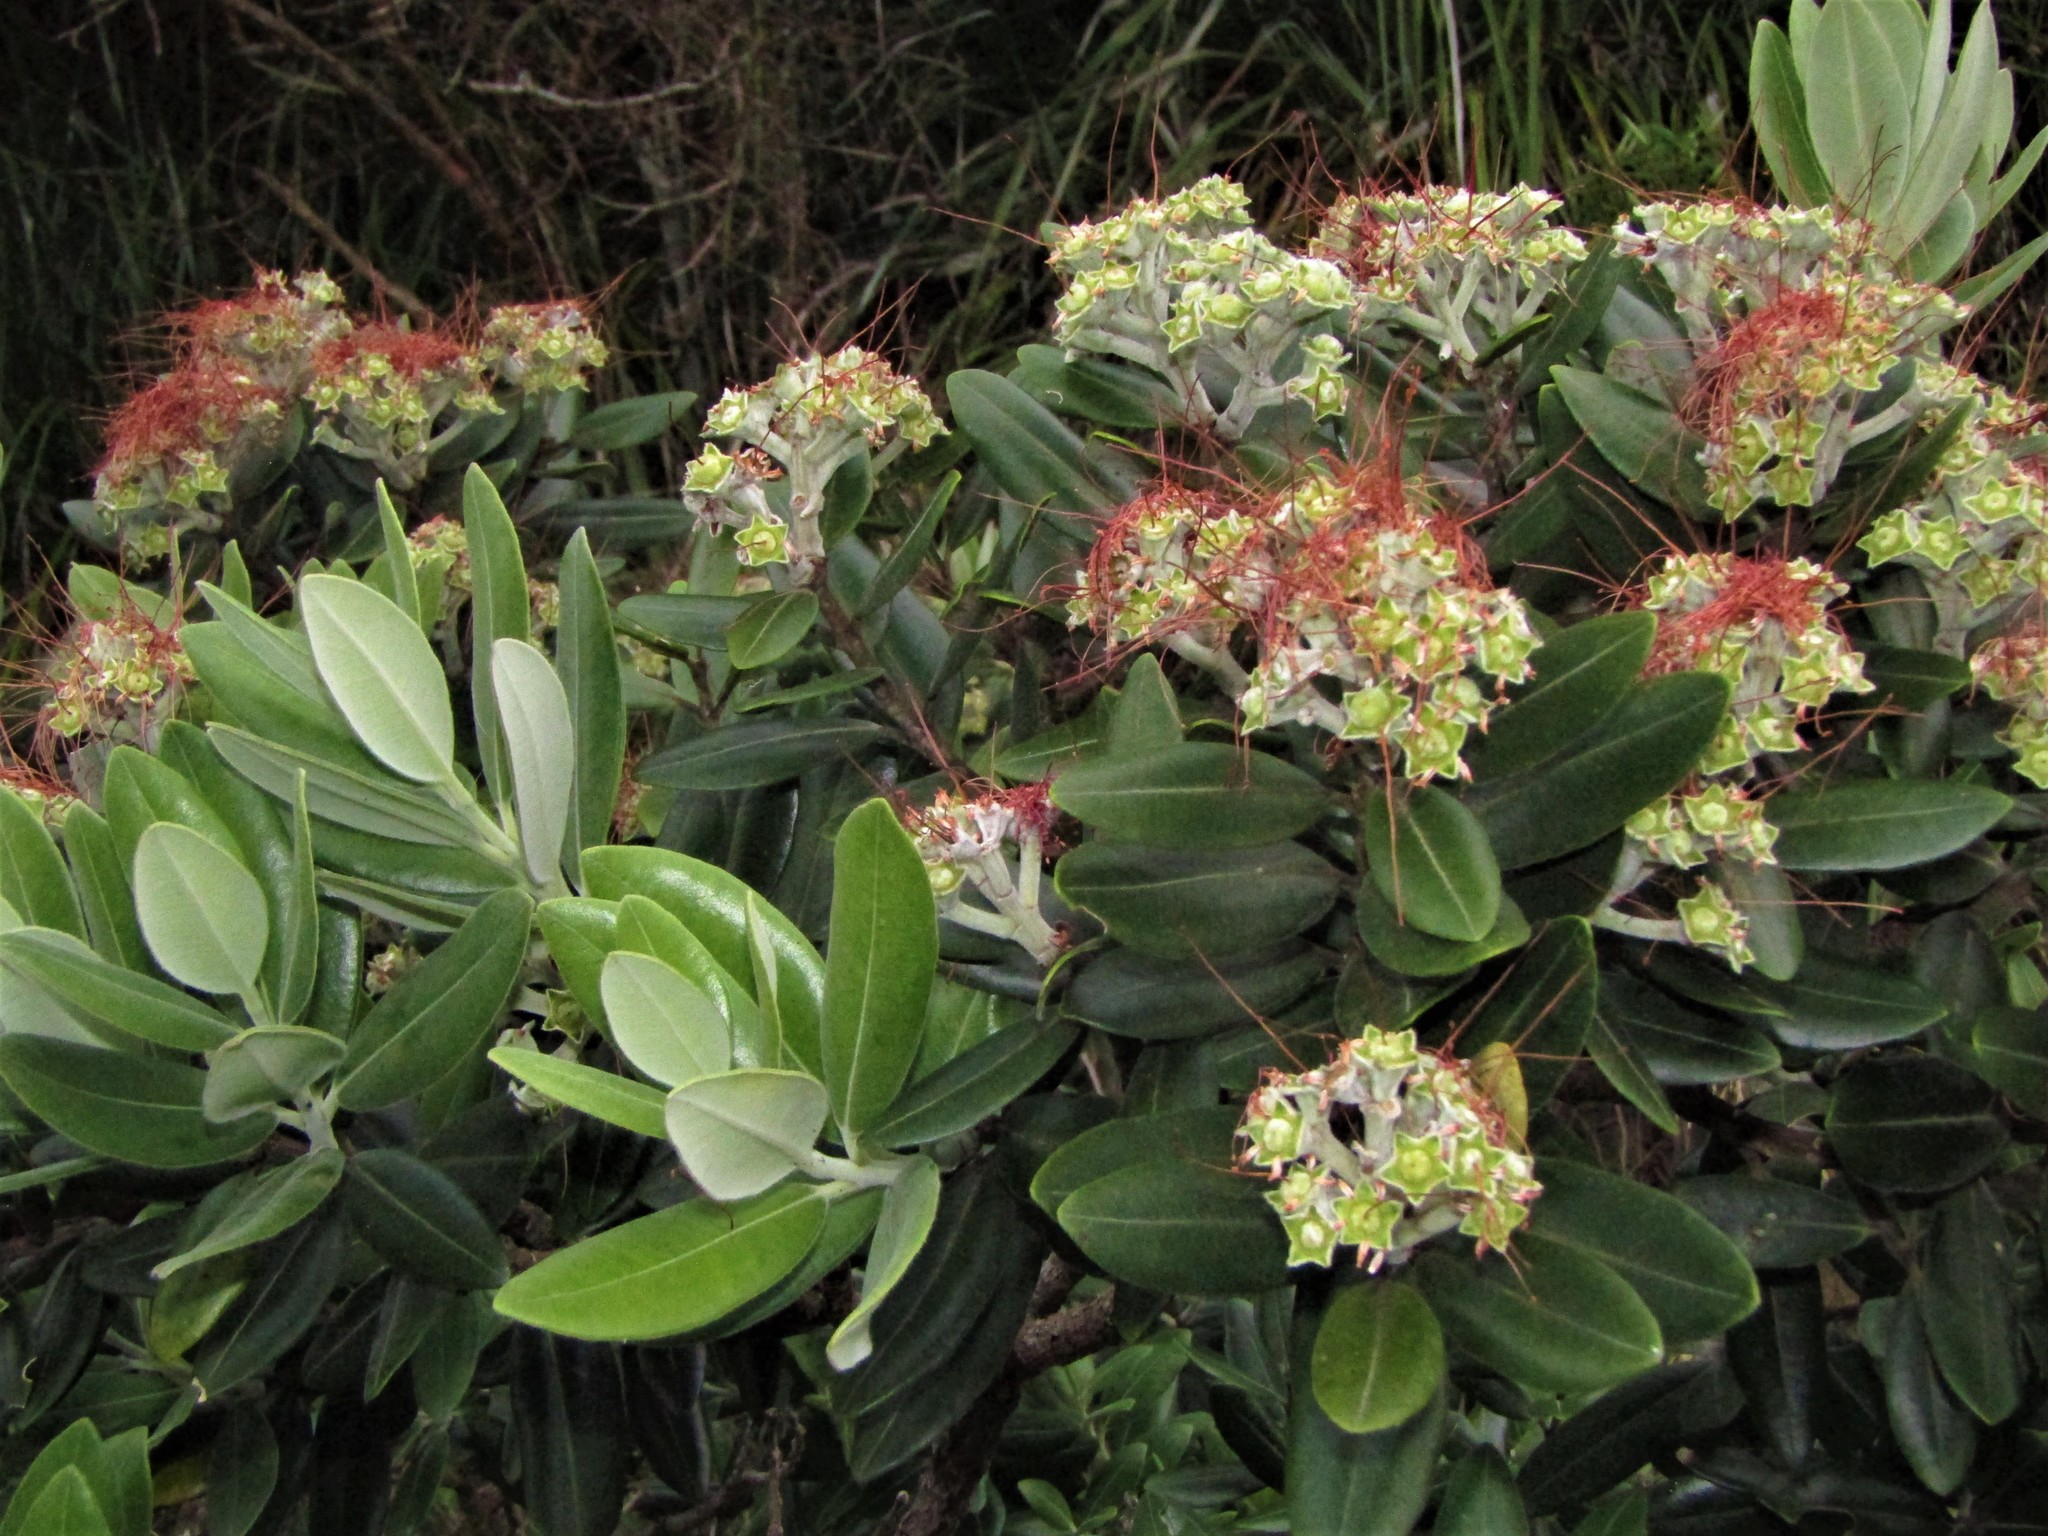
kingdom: Plantae
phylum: Tracheophyta
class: Magnoliopsida
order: Myrtales
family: Myrtaceae
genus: Metrosideros
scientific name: Metrosideros excelsa
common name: New zealand christmastree
